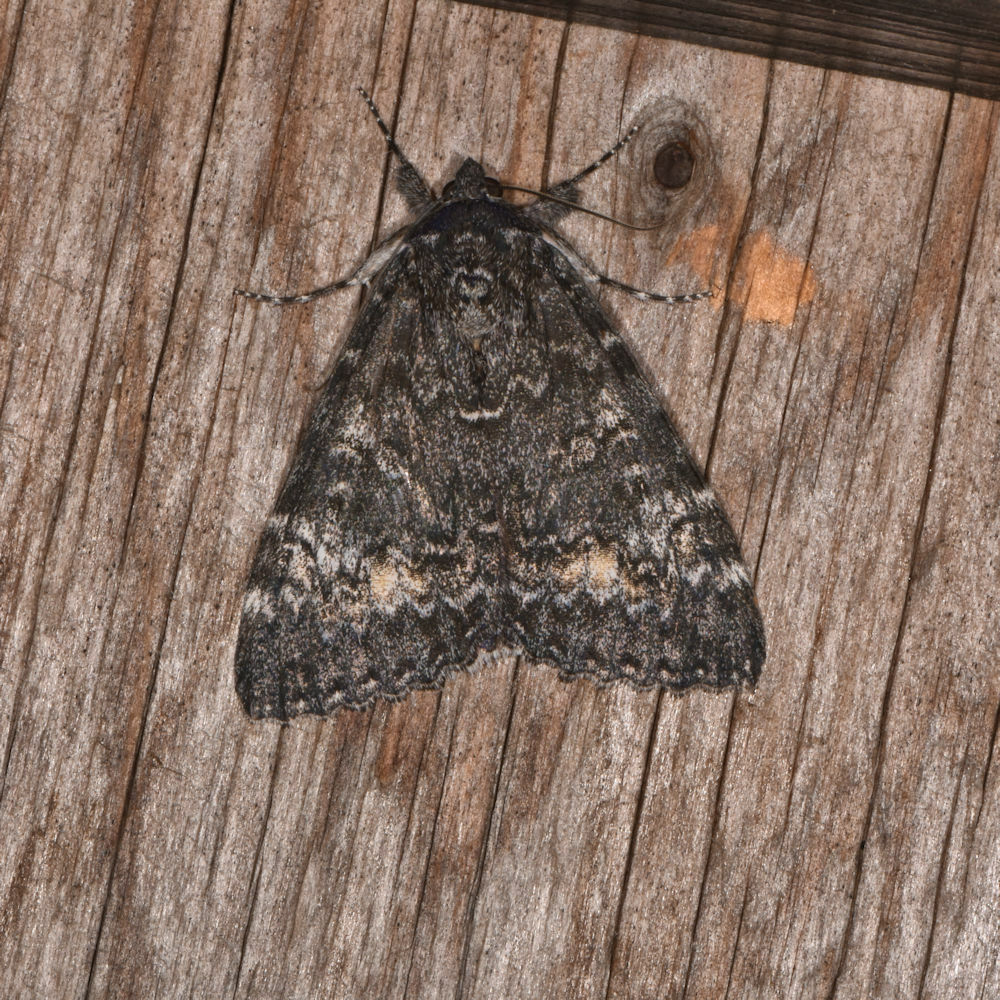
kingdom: Animalia
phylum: Arthropoda
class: Insecta
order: Lepidoptera
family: Erebidae
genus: Catocala
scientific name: Catocala briseis
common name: Briseis underwing
